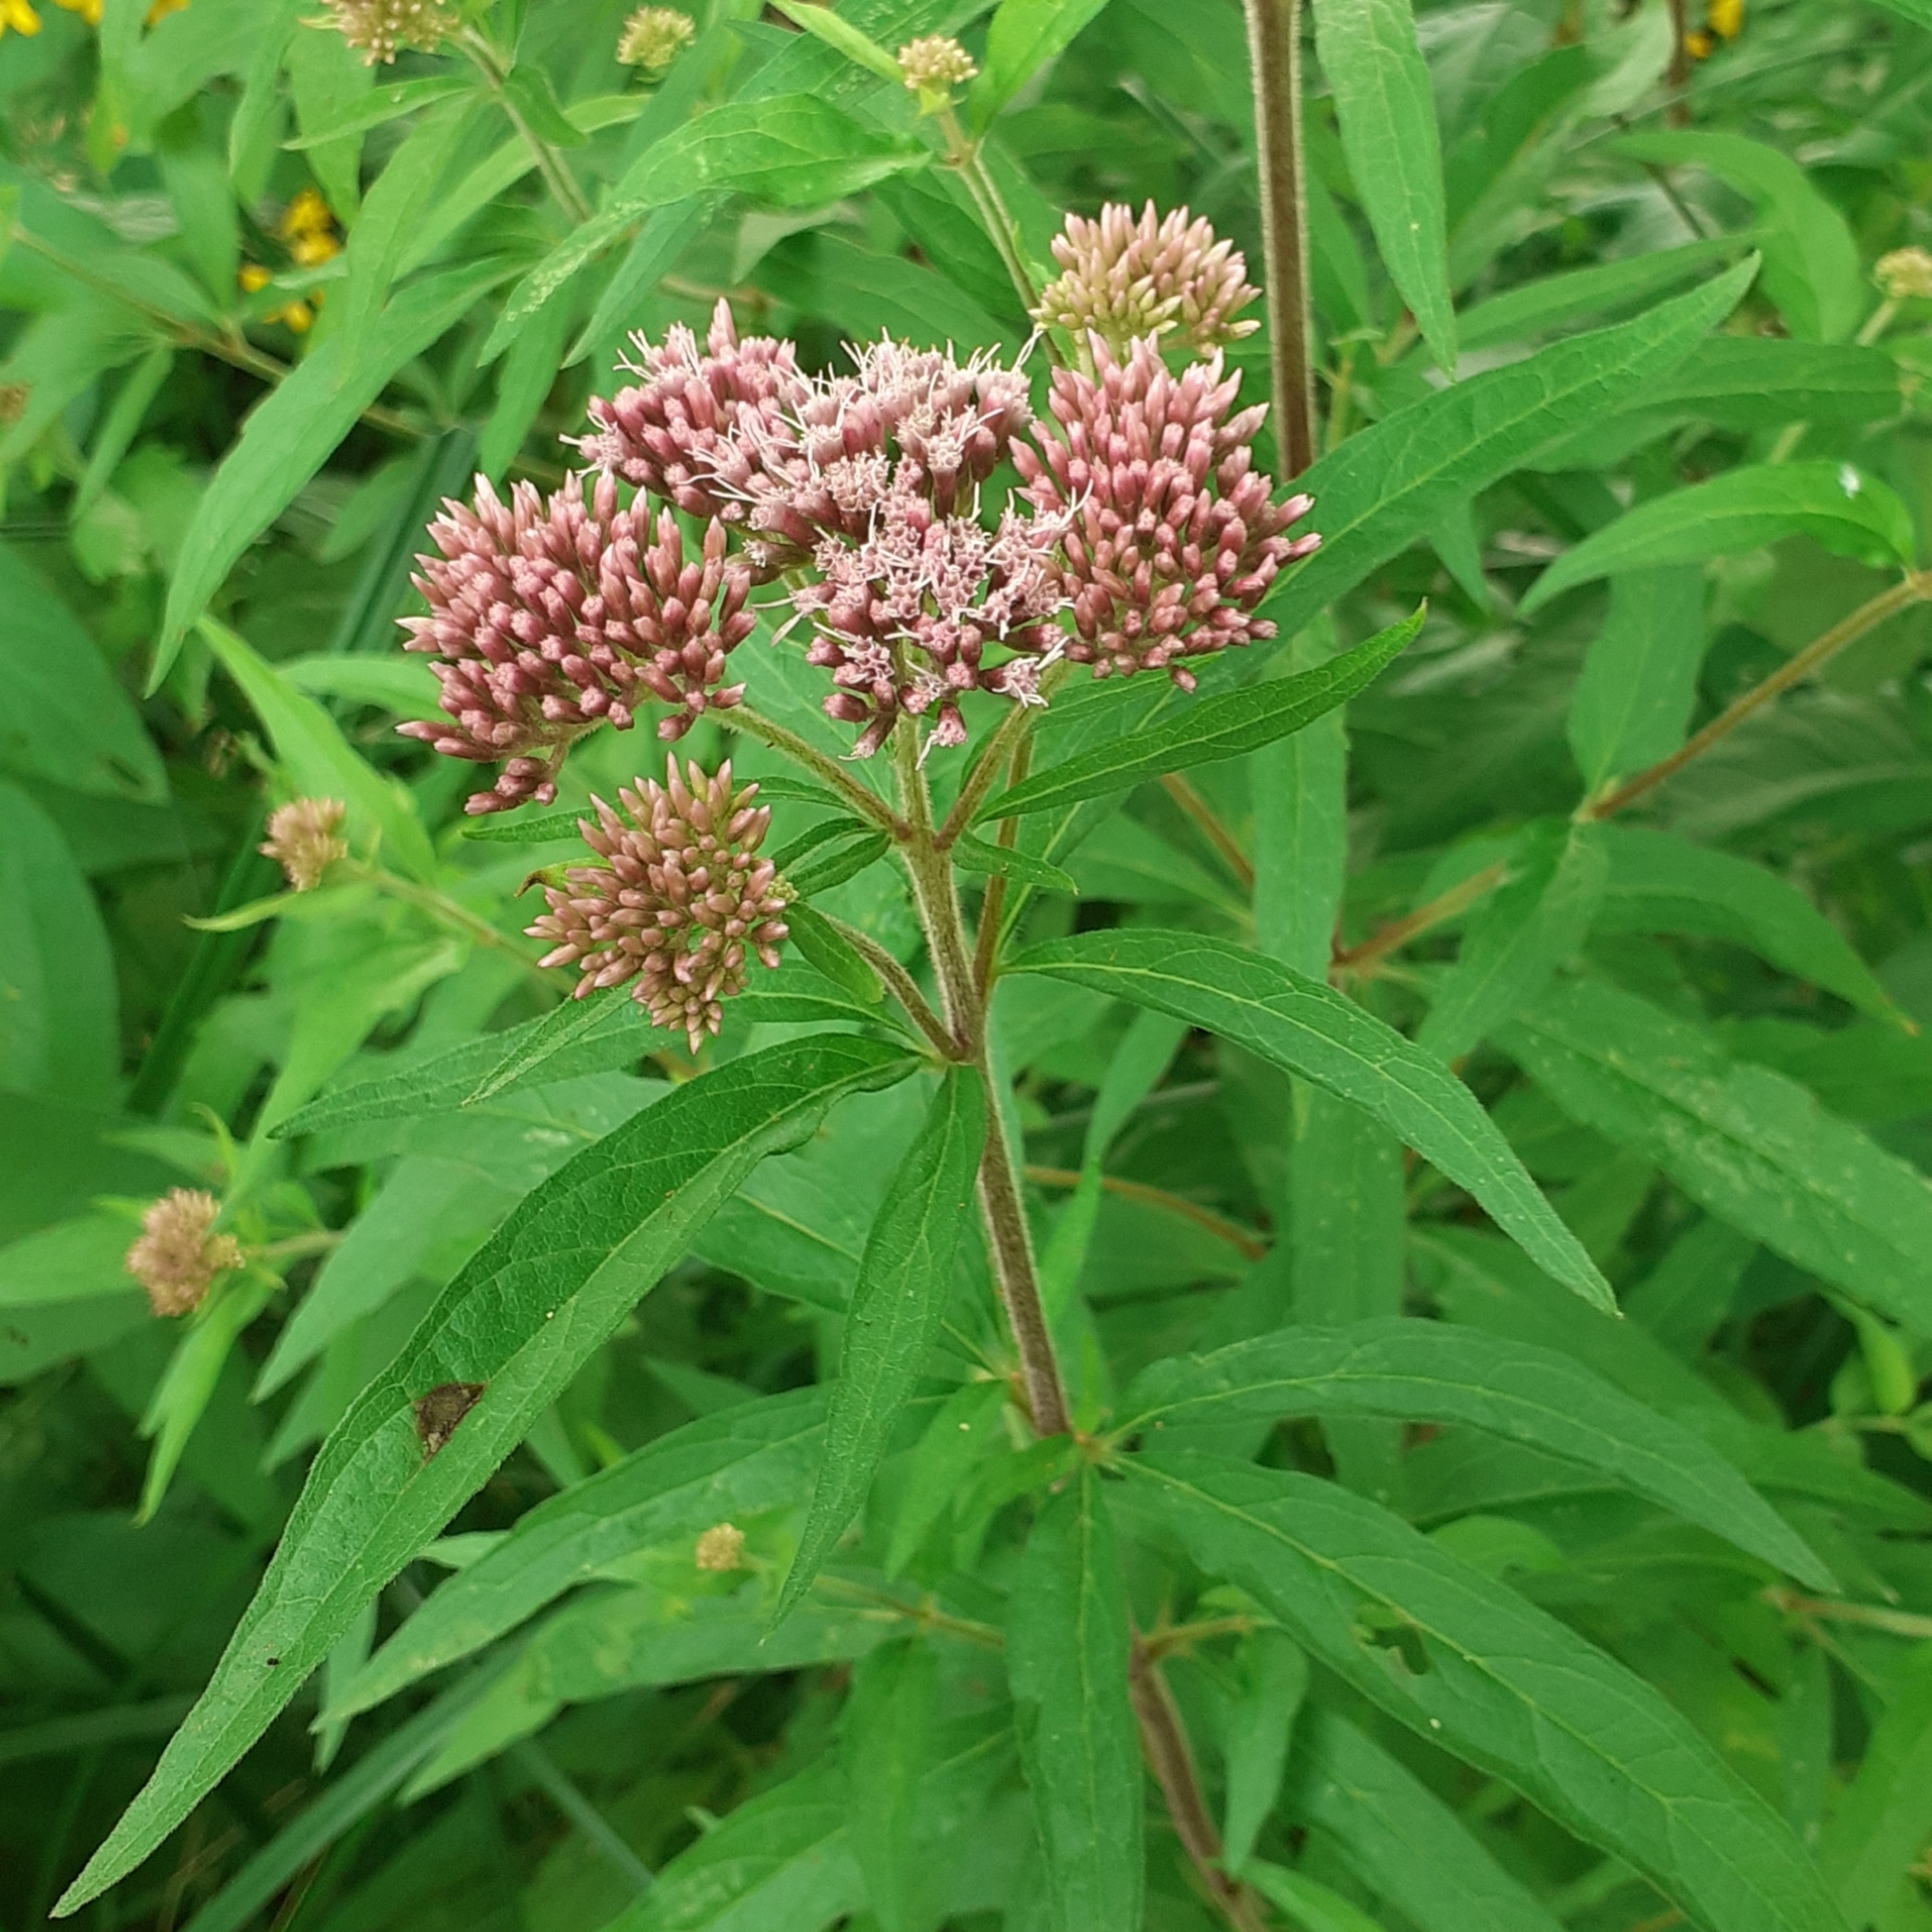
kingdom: Plantae
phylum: Tracheophyta
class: Magnoliopsida
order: Asterales
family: Asteraceae
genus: Eupatorium
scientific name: Eupatorium cannabinum
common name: Hemp-agrimony
